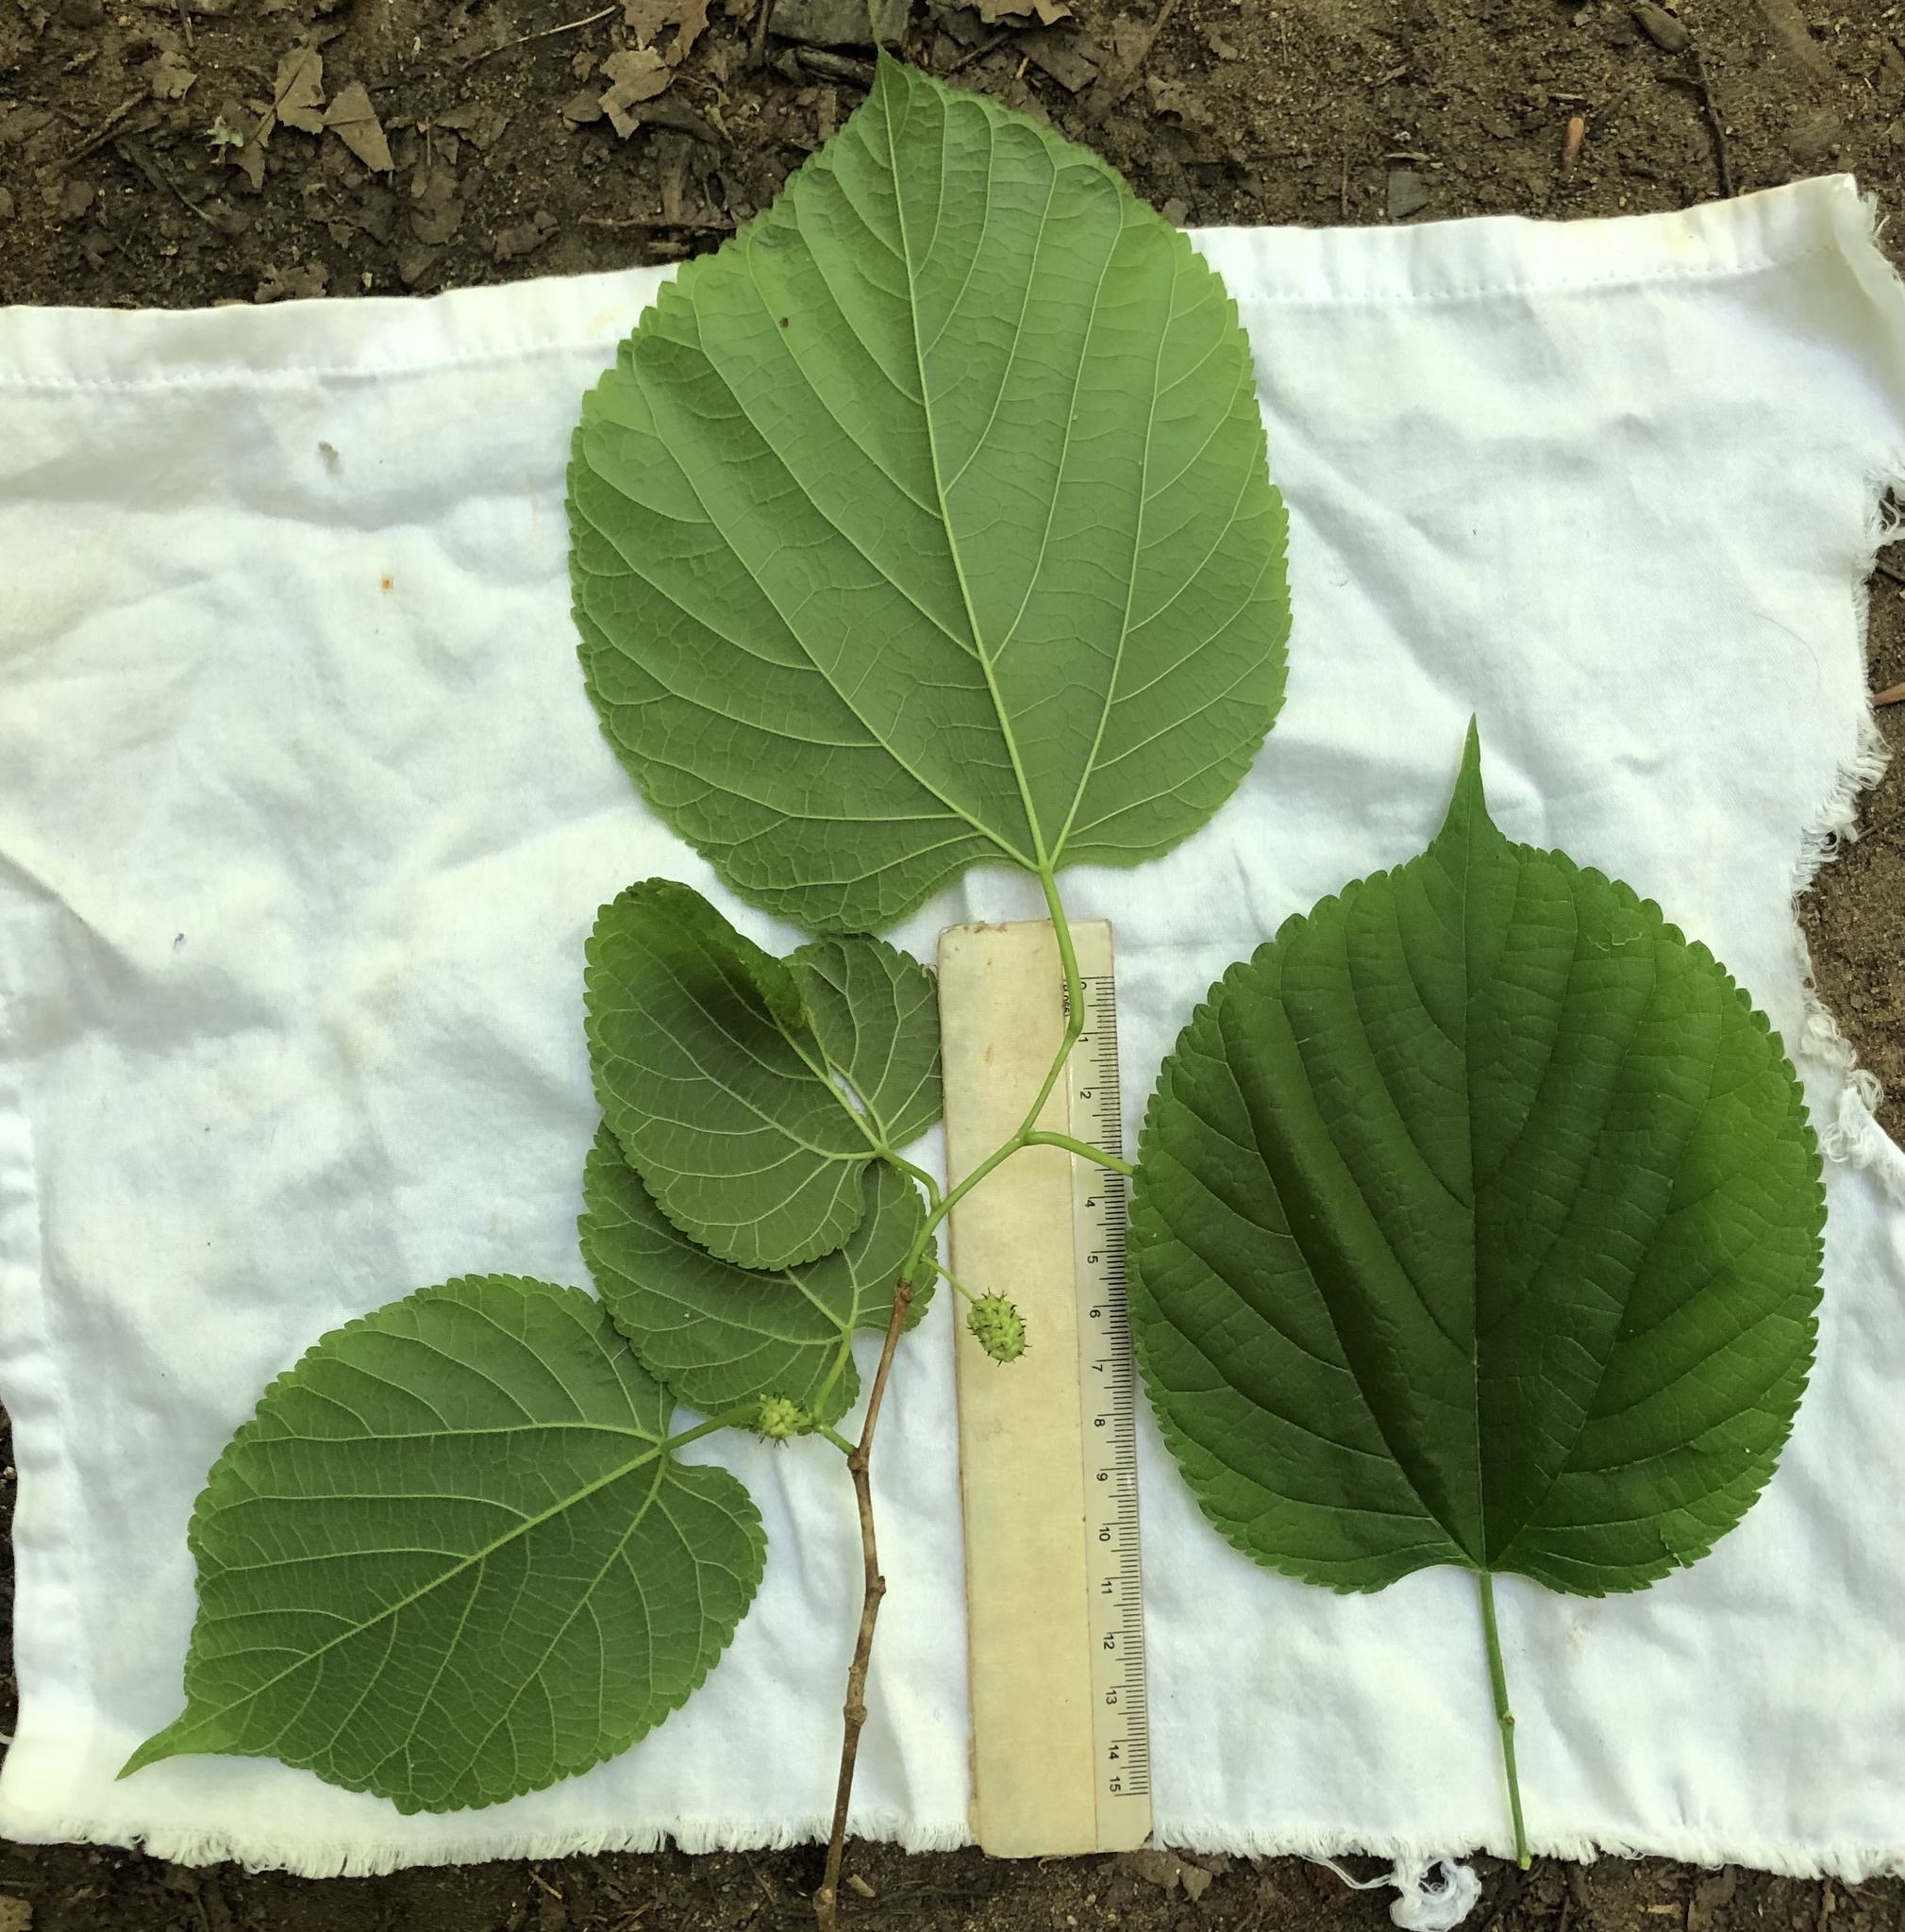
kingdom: Plantae
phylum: Tracheophyta
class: Magnoliopsida
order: Rosales
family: Moraceae
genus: Morus
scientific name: Morus rubra
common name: Red mulberry
